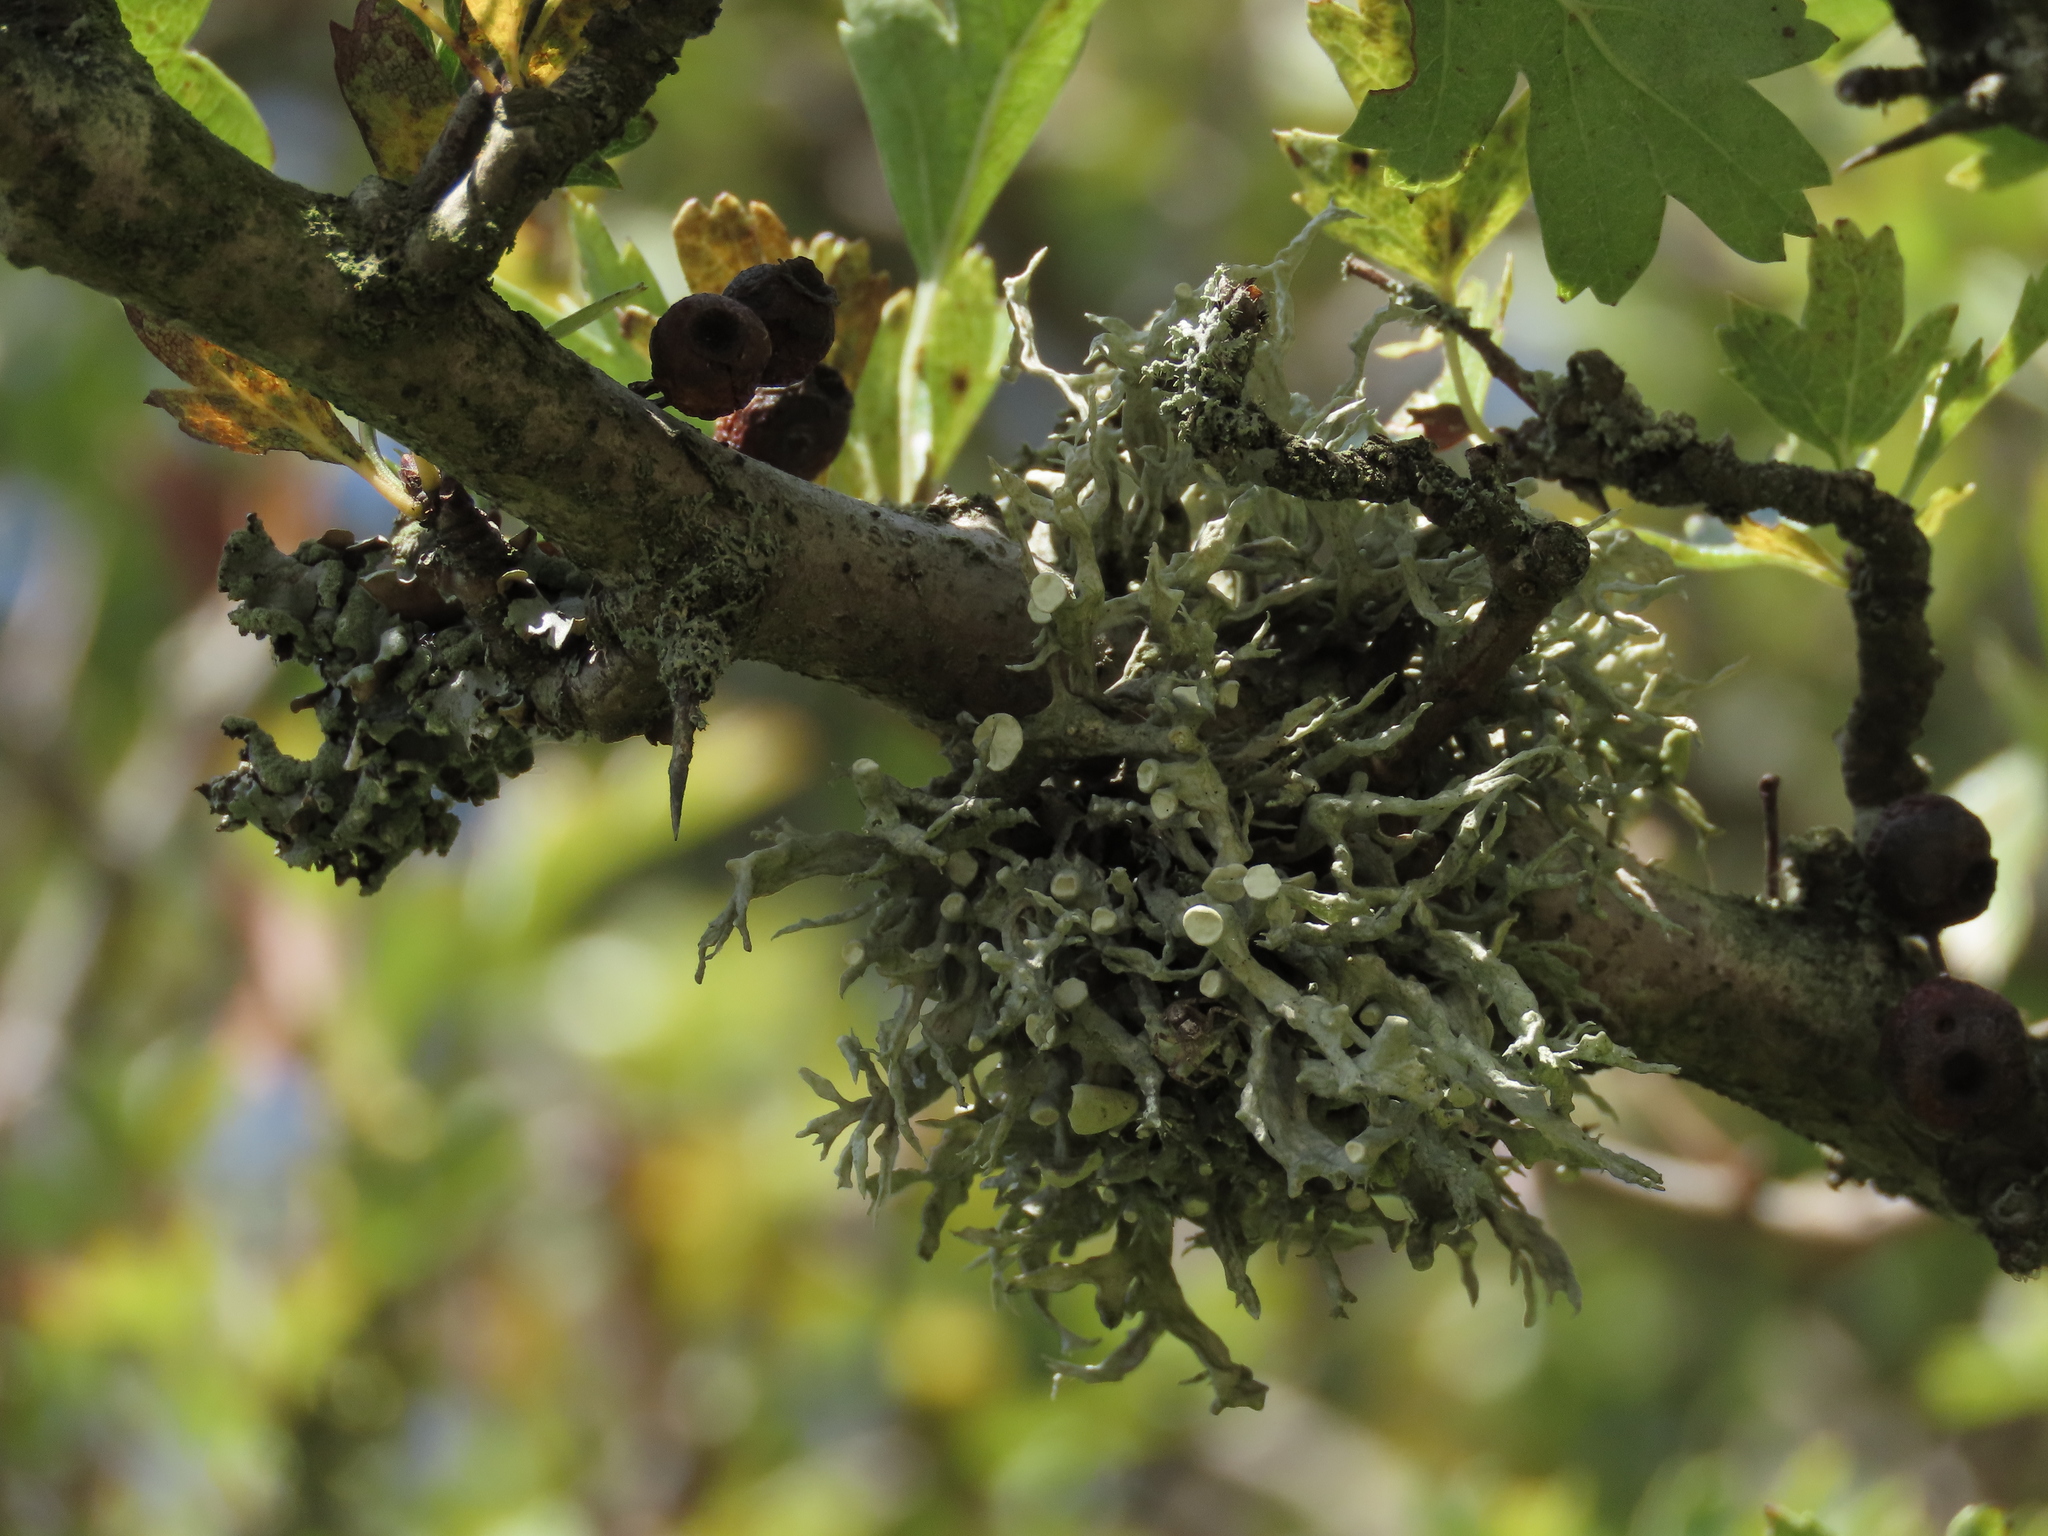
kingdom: Fungi
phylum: Ascomycota
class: Lecanoromycetes
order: Lecanorales
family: Ramalinaceae
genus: Ramalina
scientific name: Ramalina fastigiata
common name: Dotted ribbon lichen
